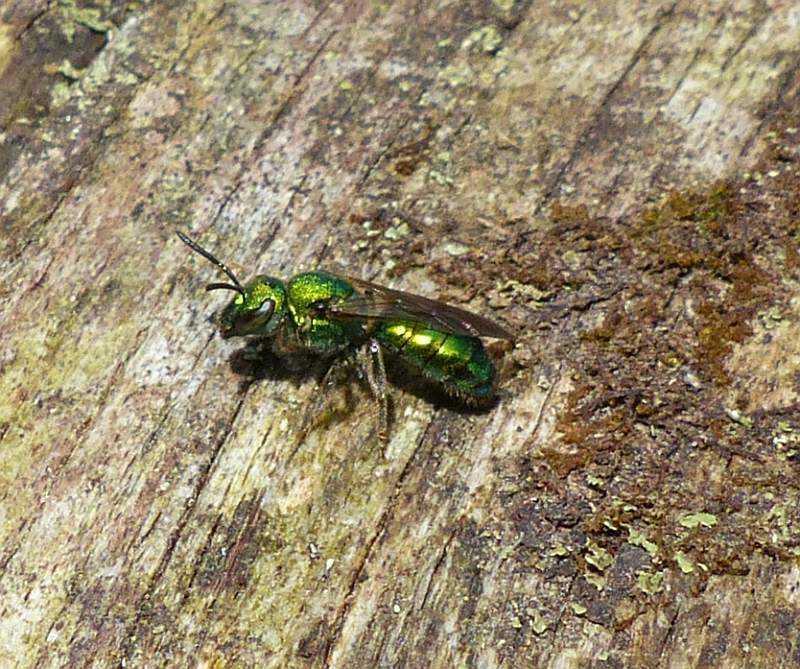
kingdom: Animalia
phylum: Arthropoda
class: Insecta
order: Hymenoptera
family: Halictidae
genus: Augochlora
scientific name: Augochlora pura
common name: Pure green sweat bee
